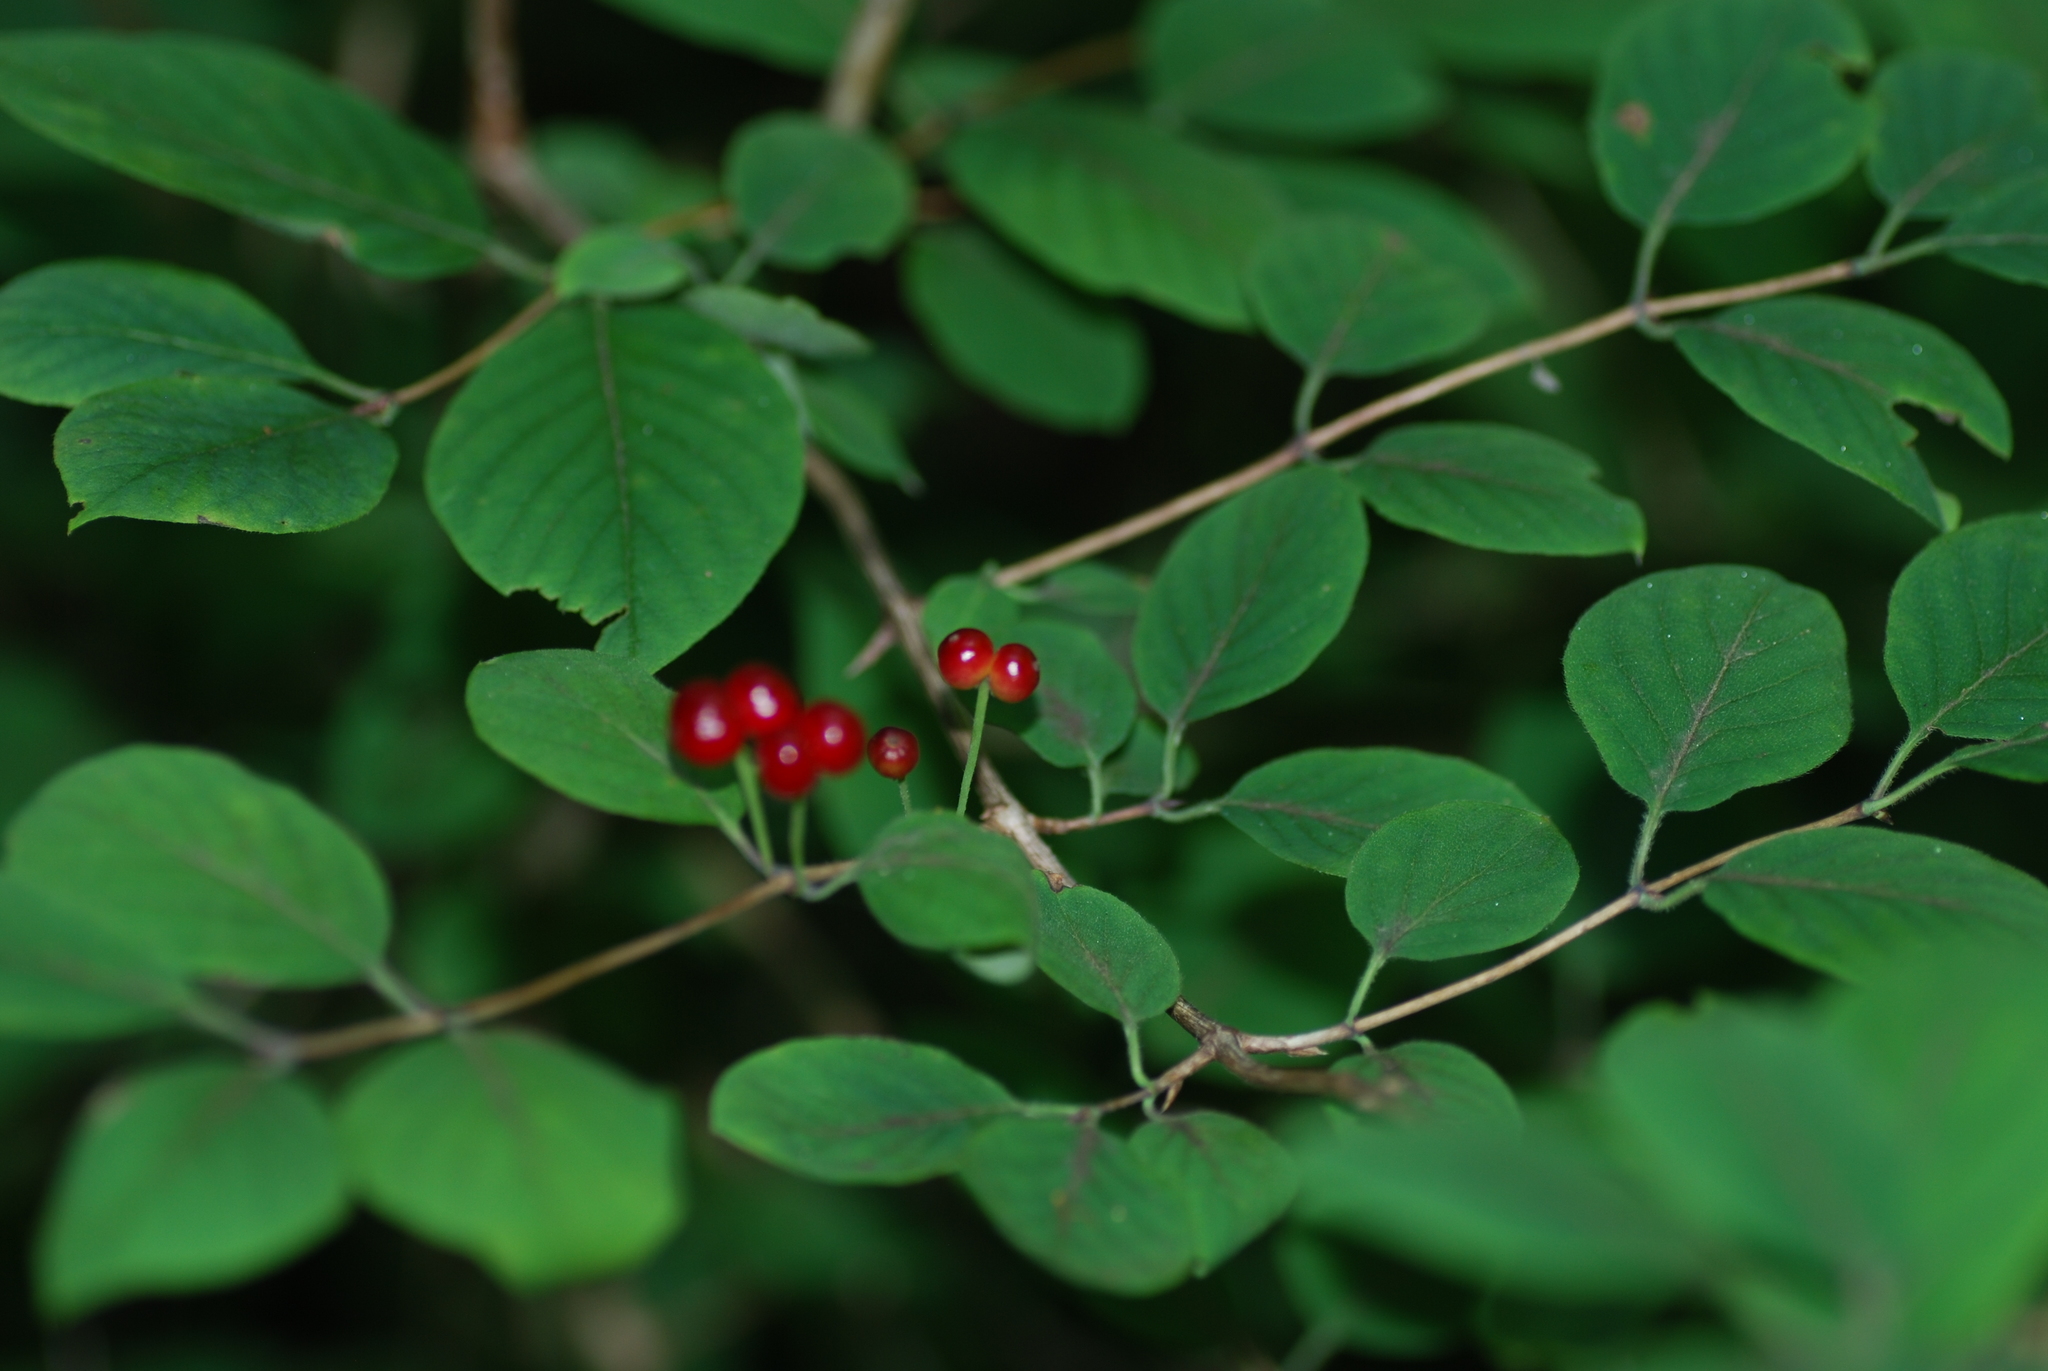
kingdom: Plantae
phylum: Tracheophyta
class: Magnoliopsida
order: Dipsacales
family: Caprifoliaceae
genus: Lonicera
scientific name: Lonicera xylosteum
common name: Fly honeysuckle
